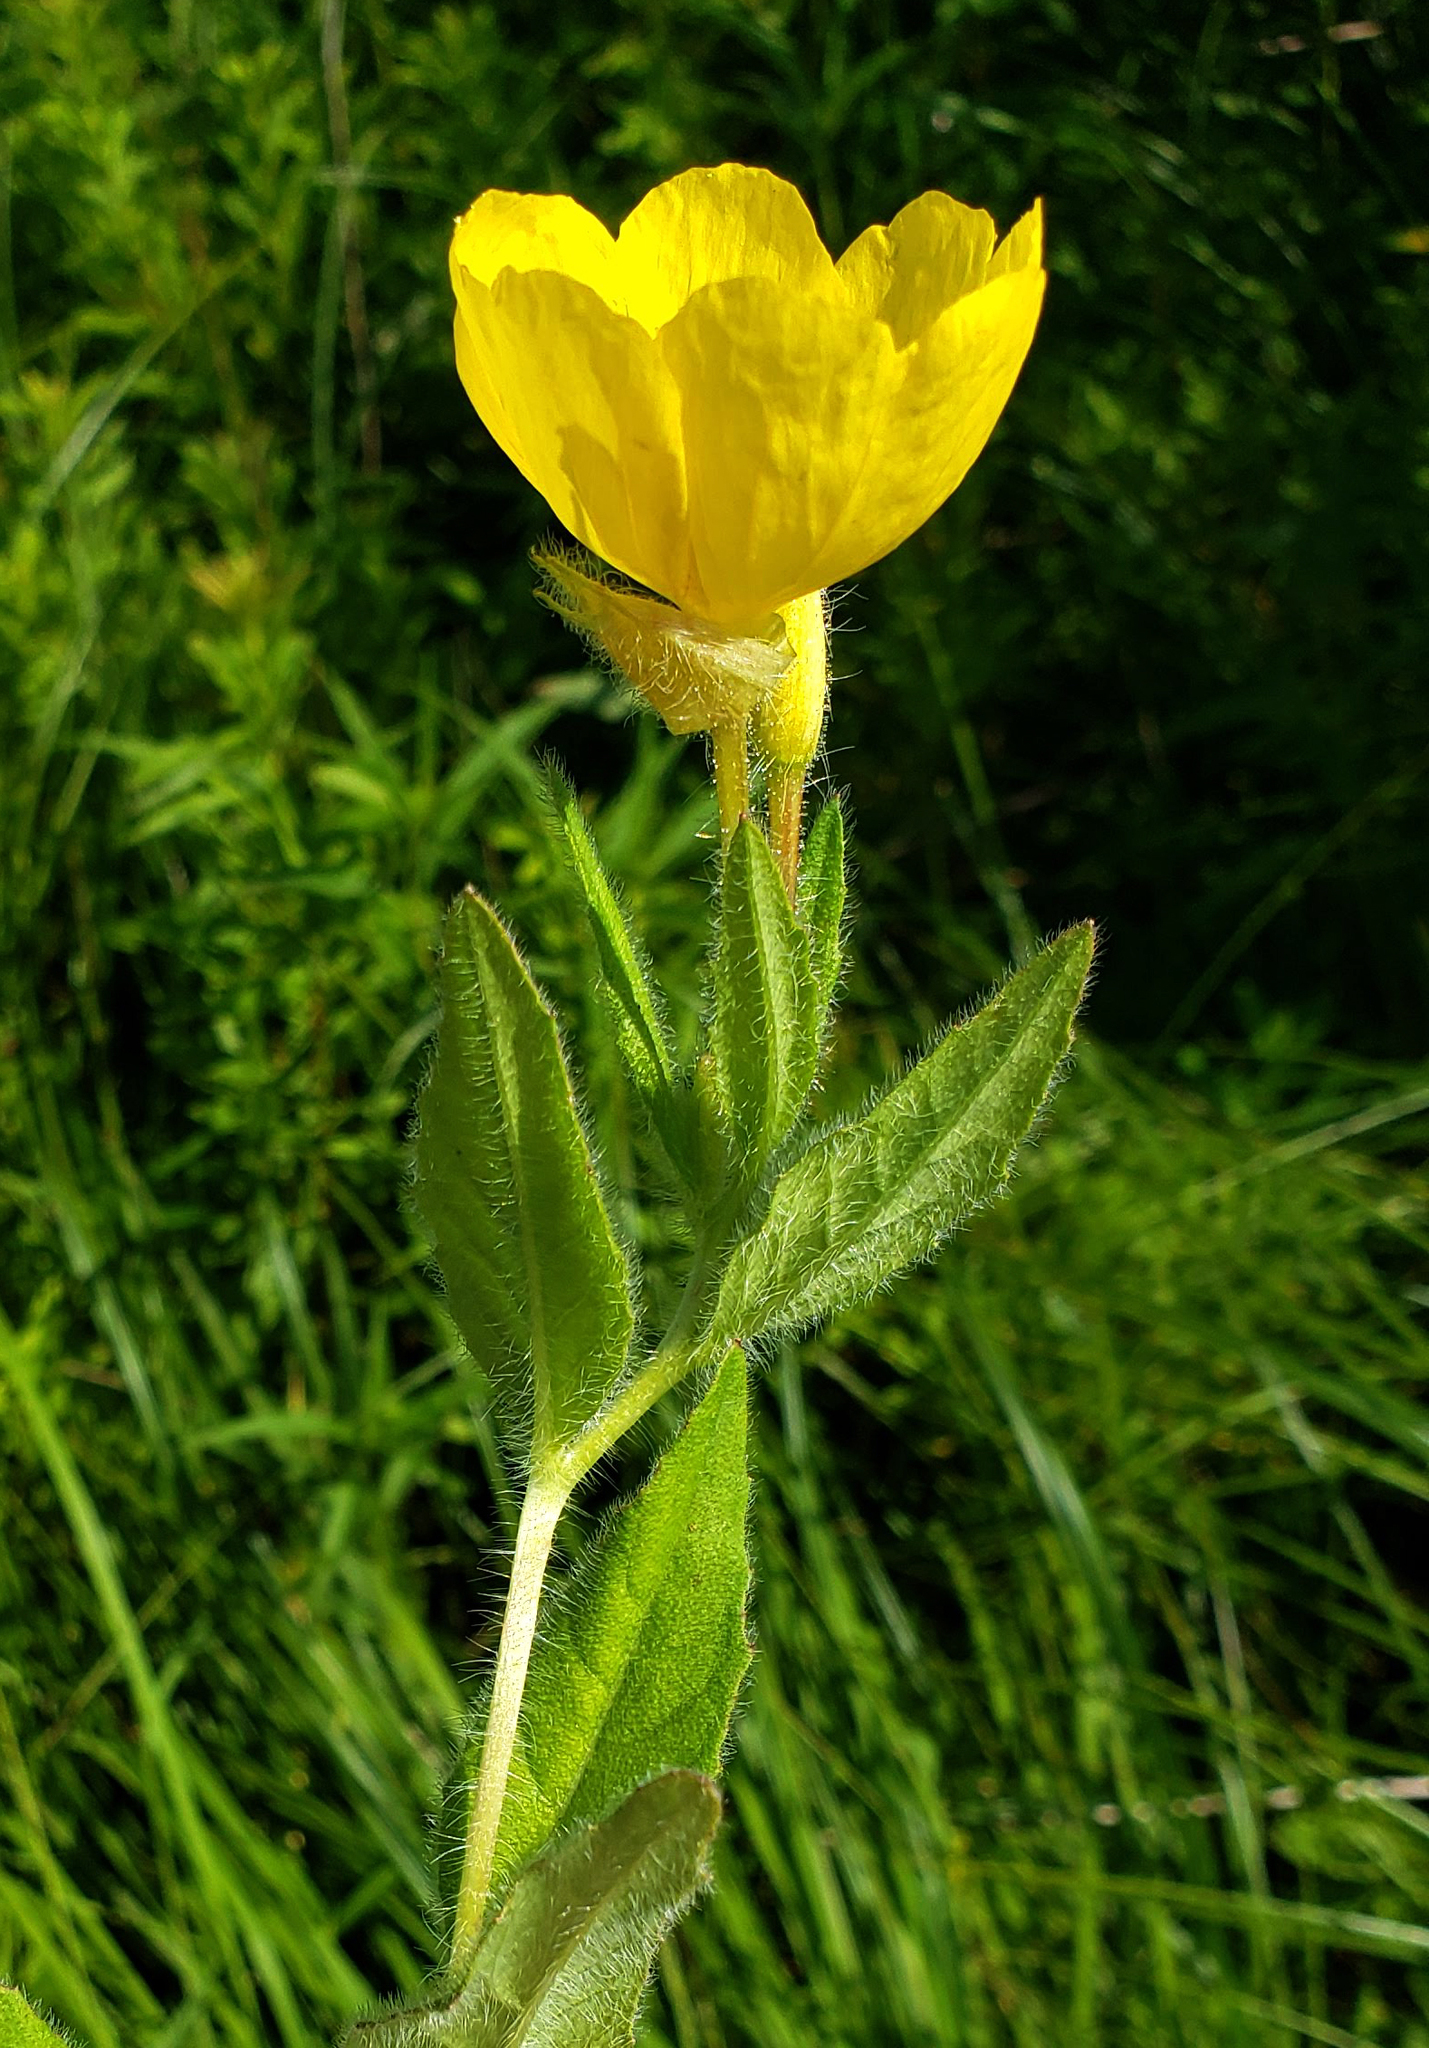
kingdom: Plantae
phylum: Tracheophyta
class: Magnoliopsida
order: Myrtales
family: Onagraceae
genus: Oenothera
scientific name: Oenothera pilosella
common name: Finely-pilose evening-primrose
